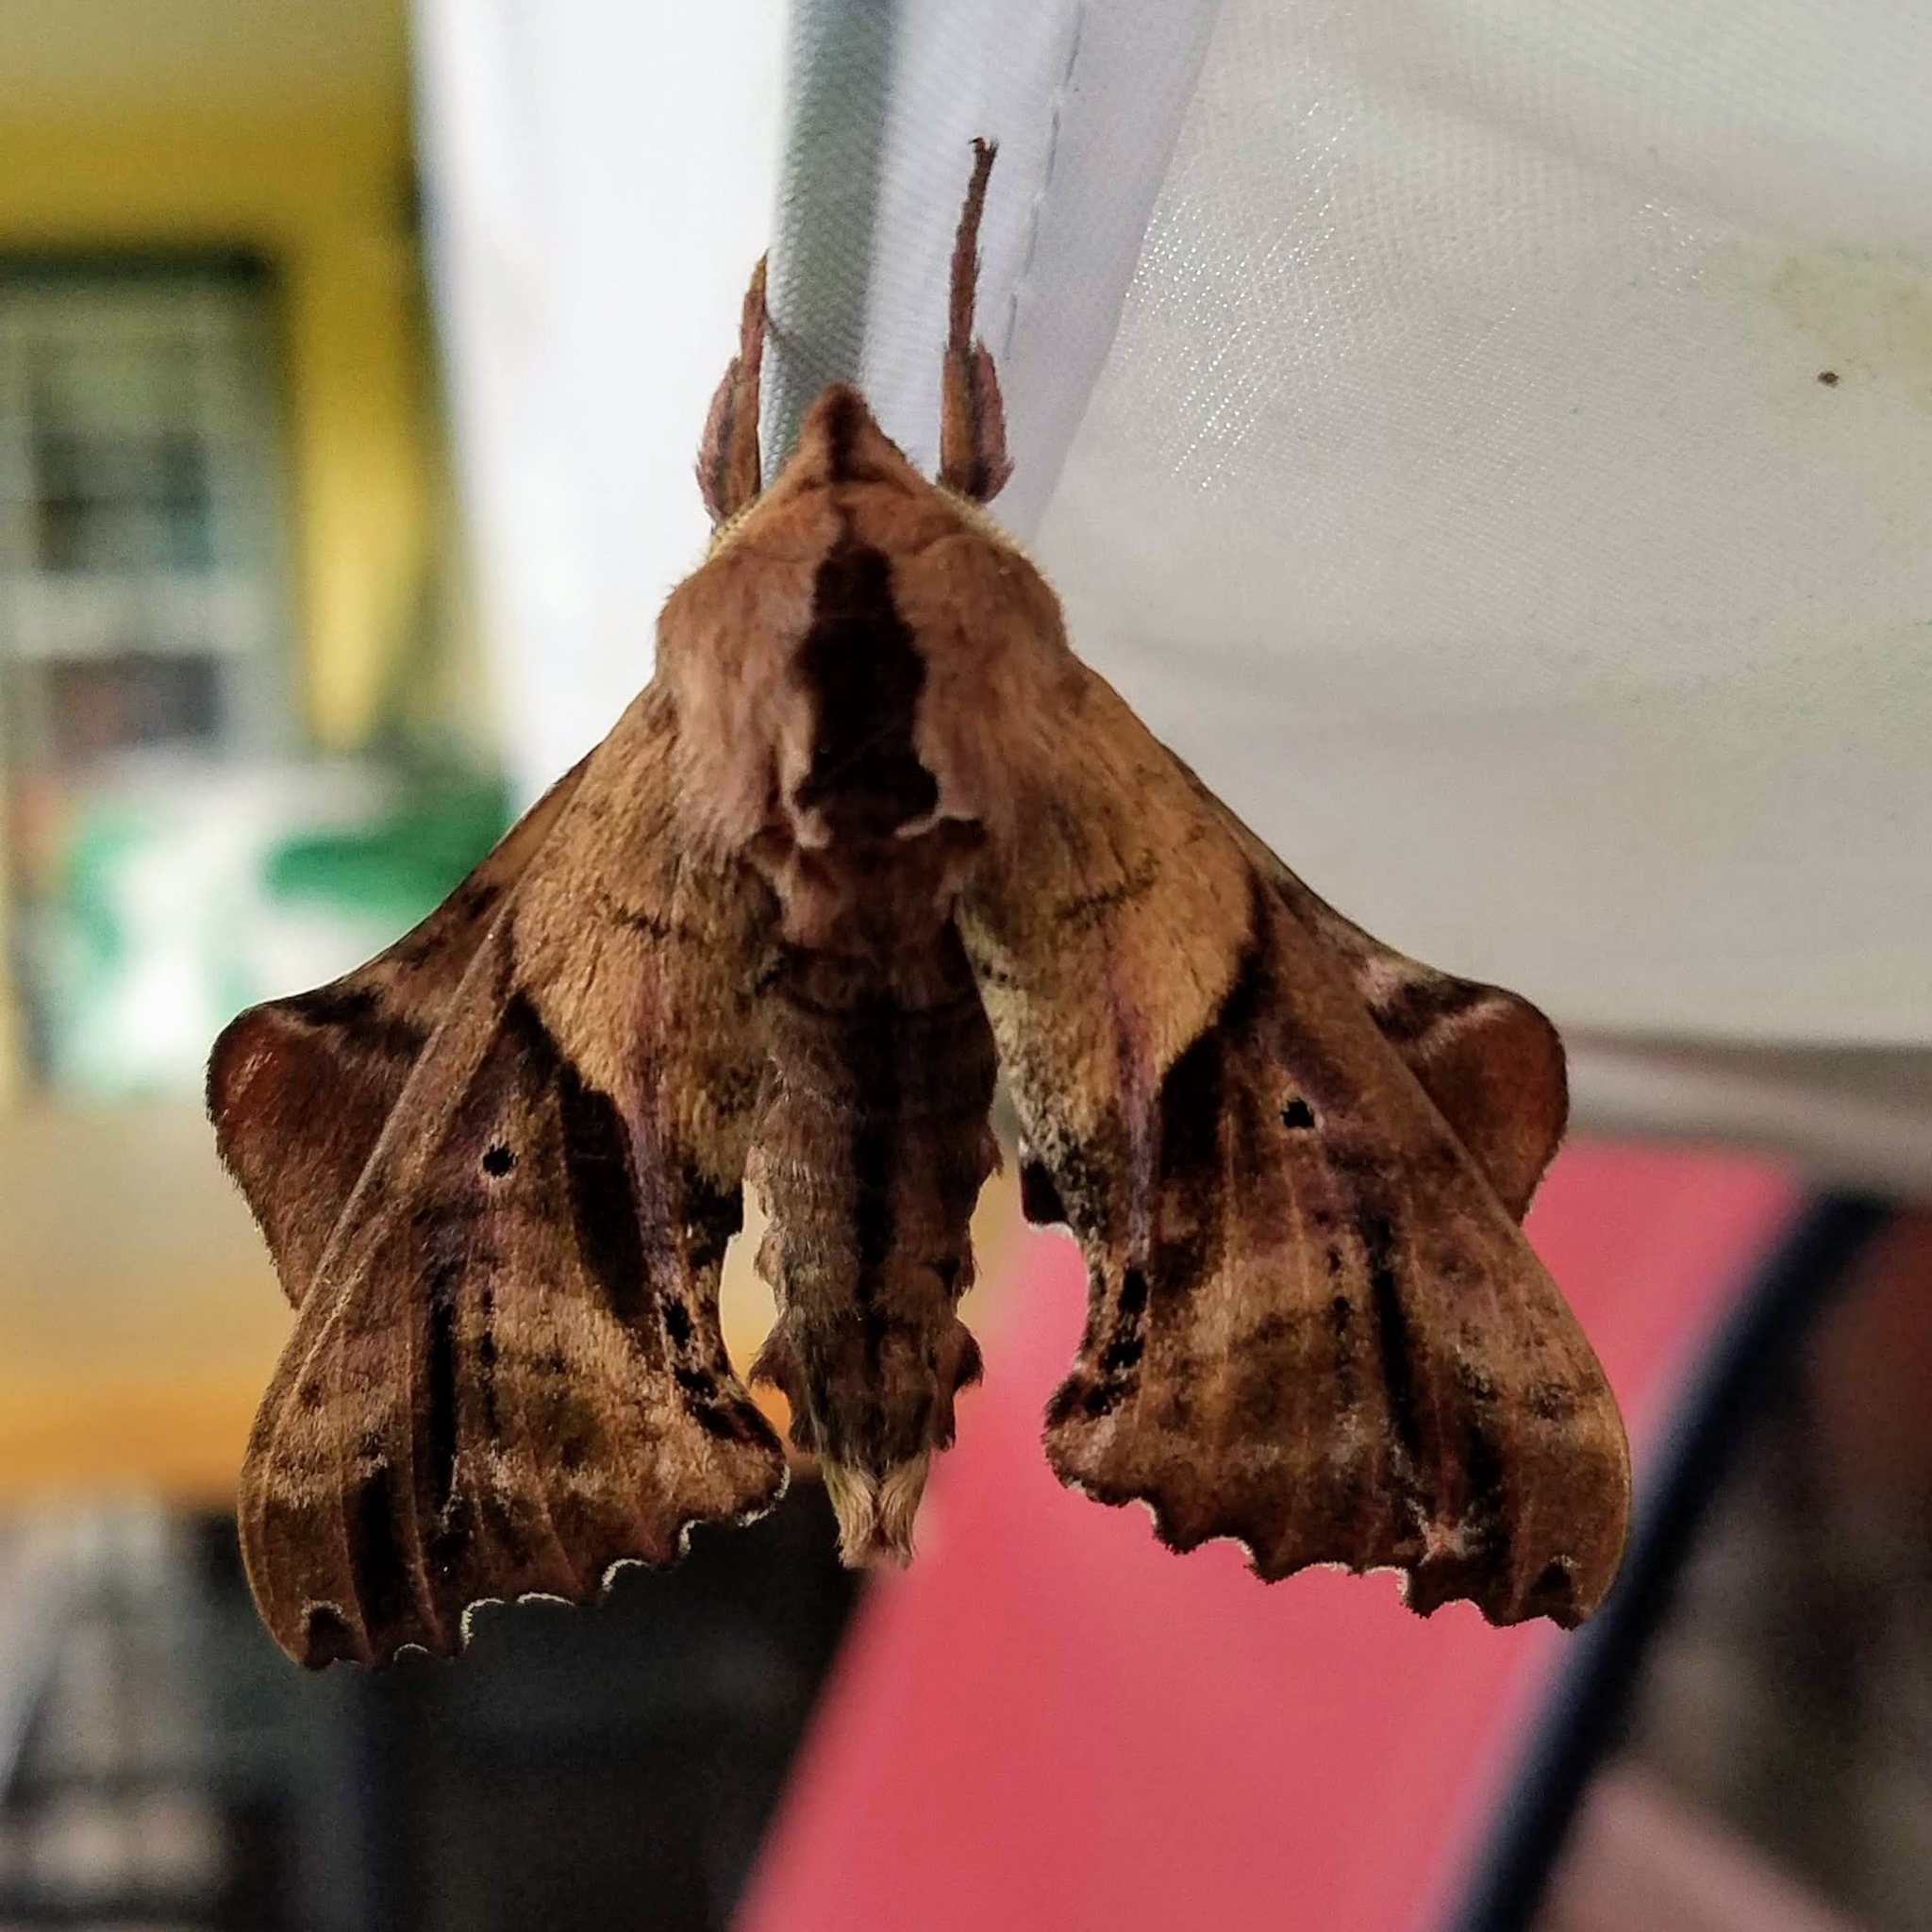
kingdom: Animalia
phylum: Arthropoda
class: Insecta
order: Lepidoptera
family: Sphingidae
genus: Paonias
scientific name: Paonias excaecata
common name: Blind-eyed sphinx
